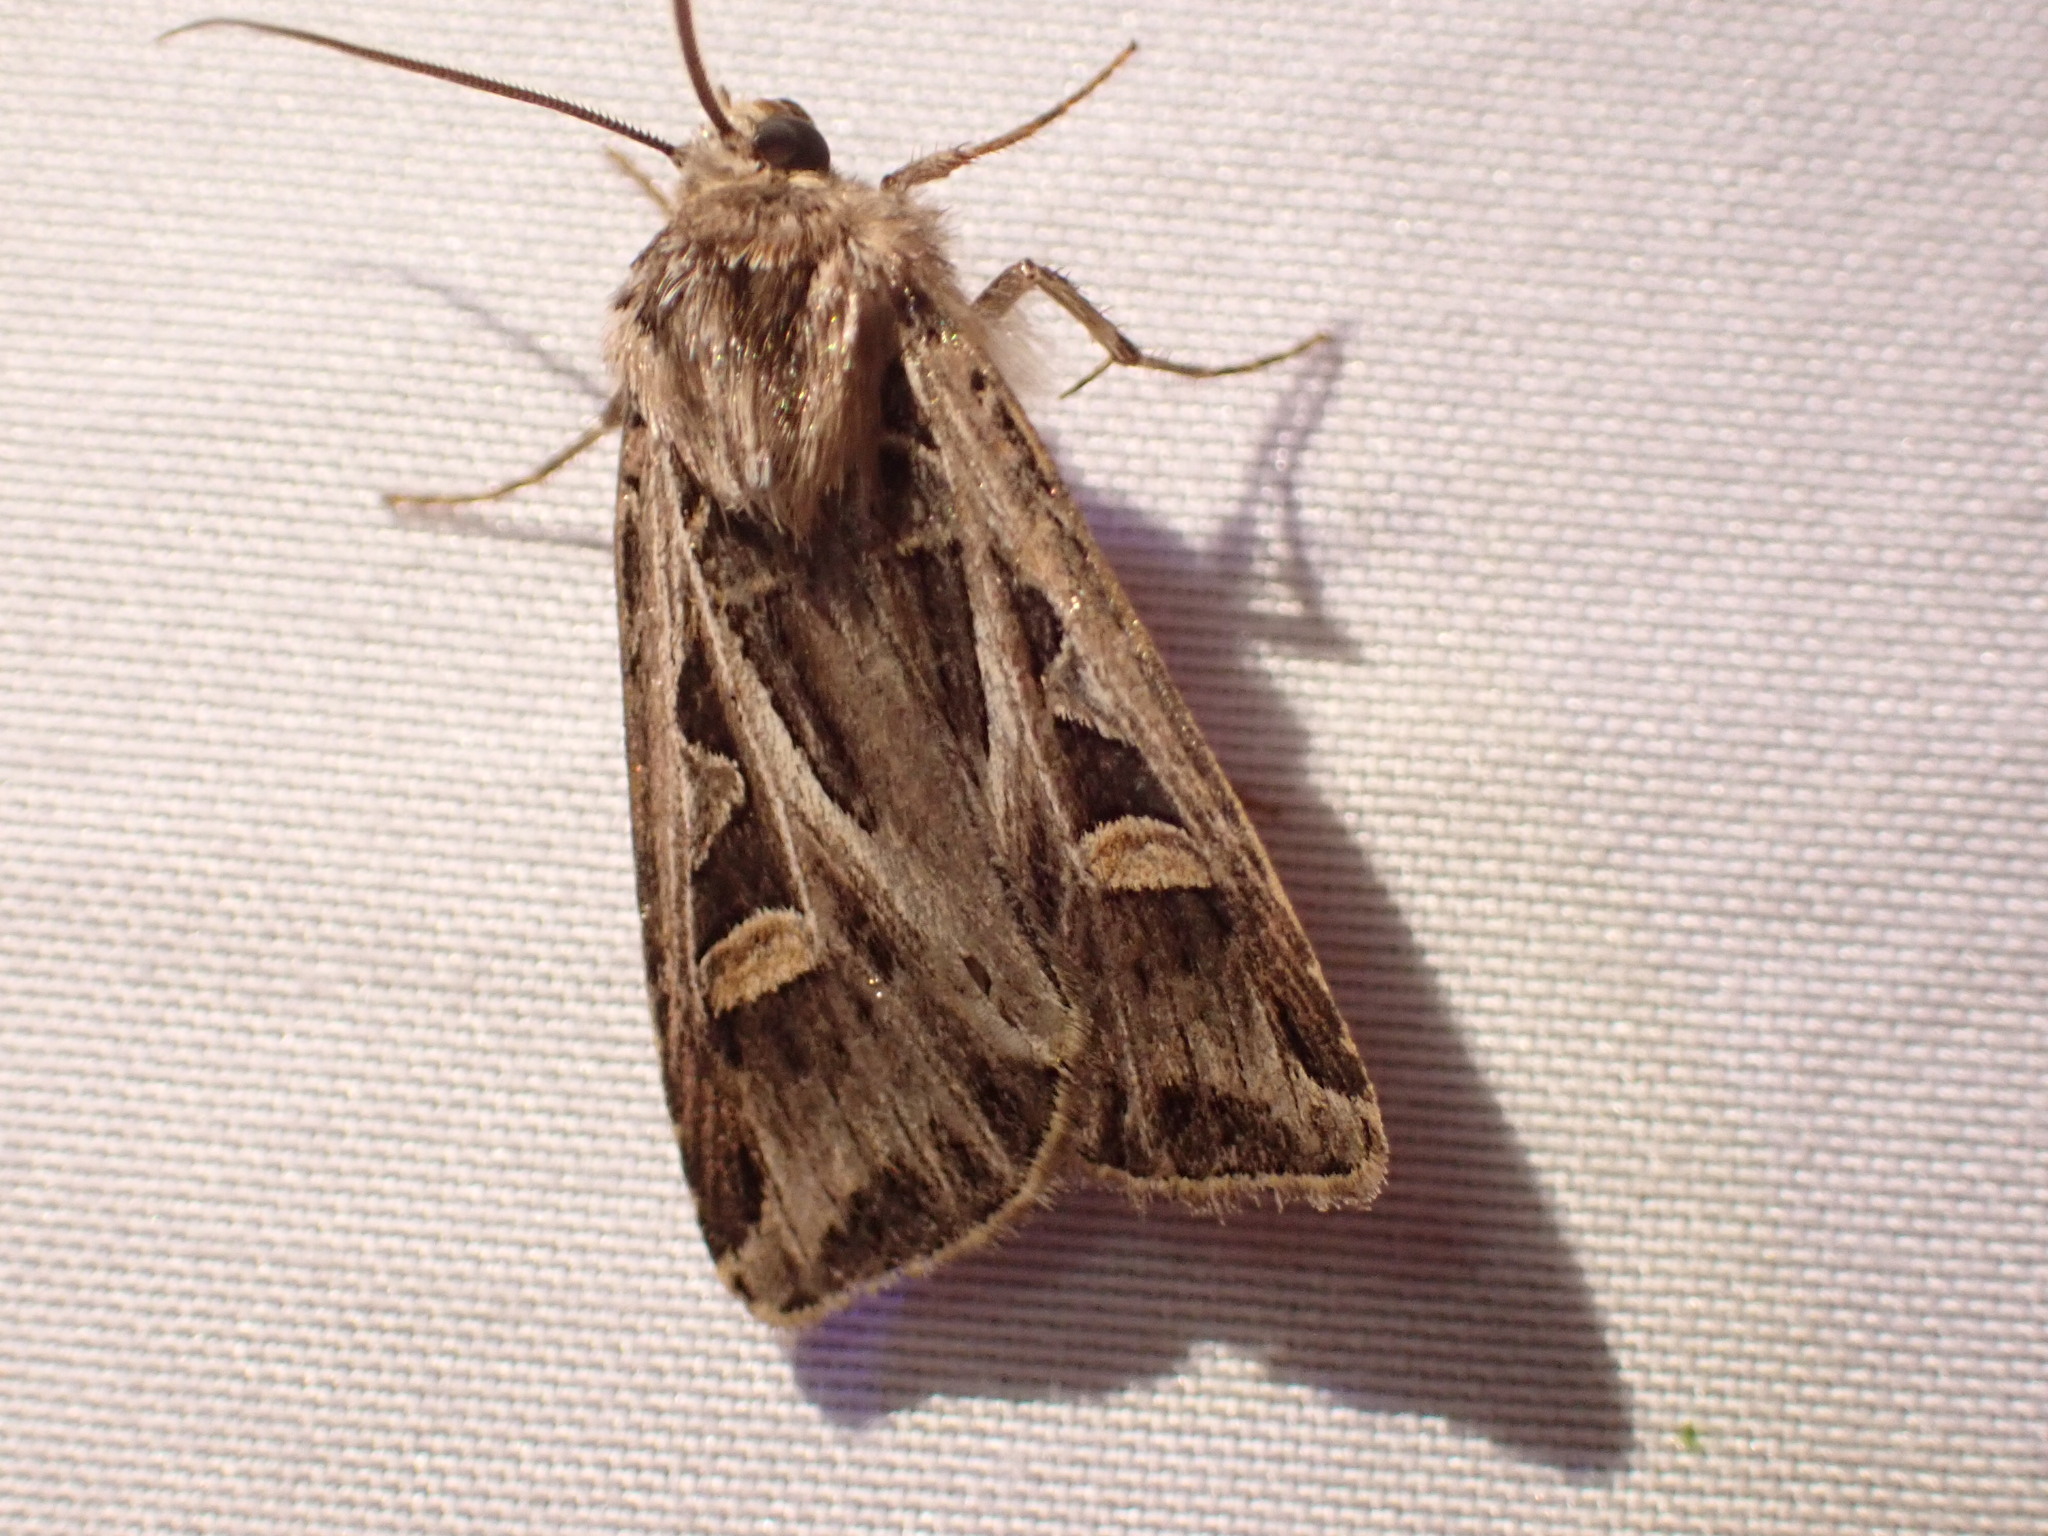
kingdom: Animalia
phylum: Arthropoda
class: Insecta
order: Lepidoptera
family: Noctuidae
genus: Feltia
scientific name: Feltia jaculifera
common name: Dingy cutworm moth
